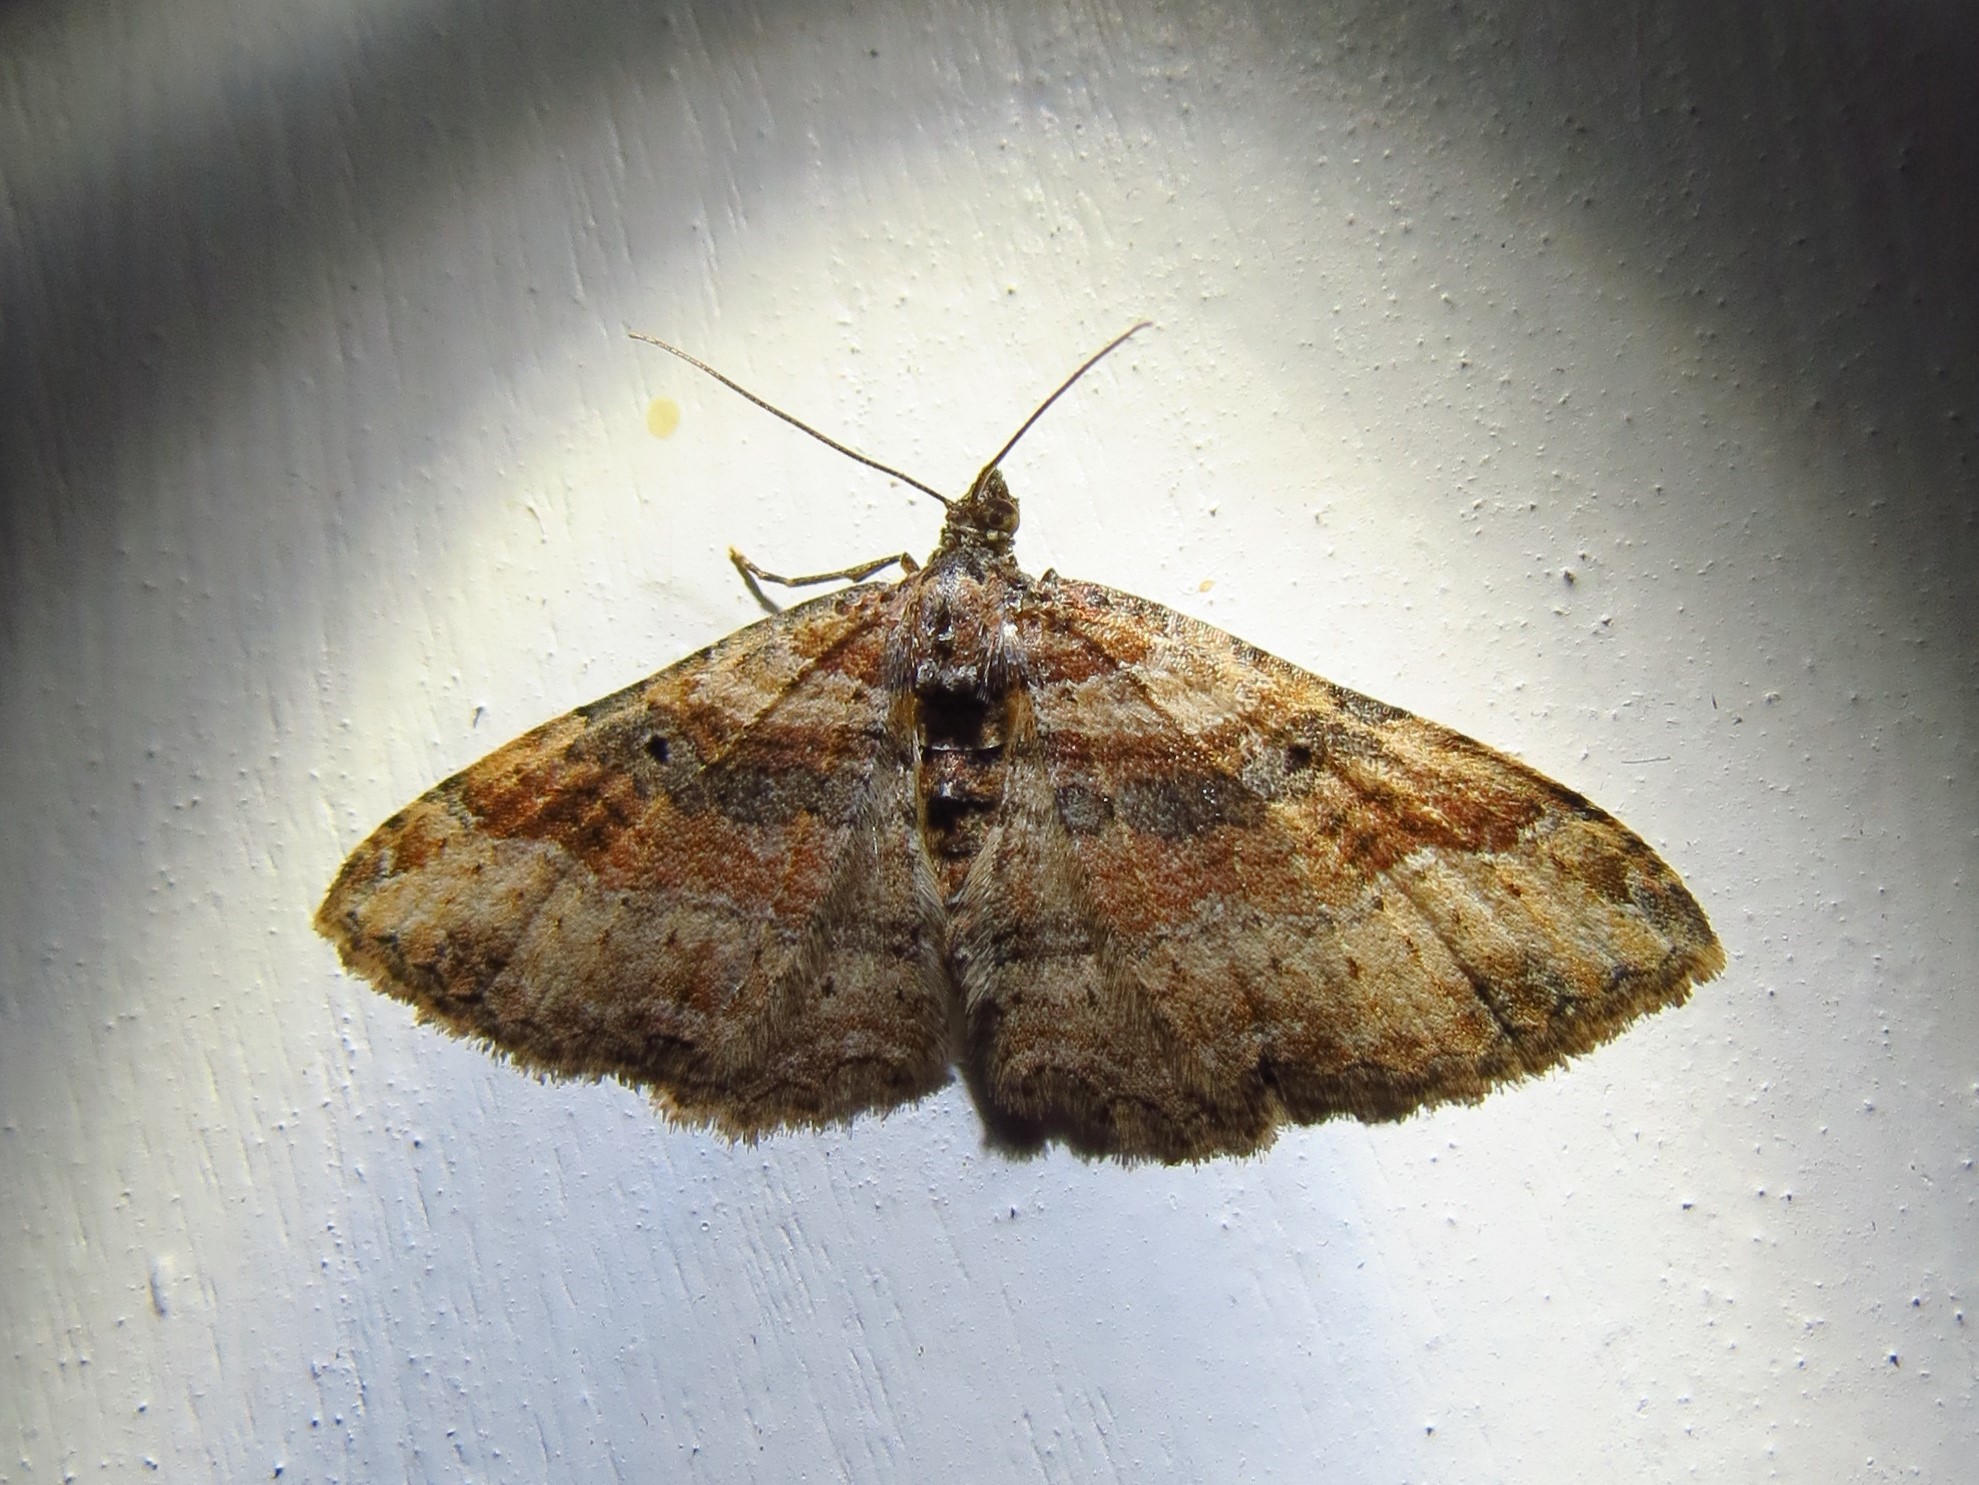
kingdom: Animalia
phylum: Arthropoda
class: Insecta
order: Lepidoptera
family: Geometridae
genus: Costaconvexa
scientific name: Costaconvexa centrostrigaria
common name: Bent-line carpet
